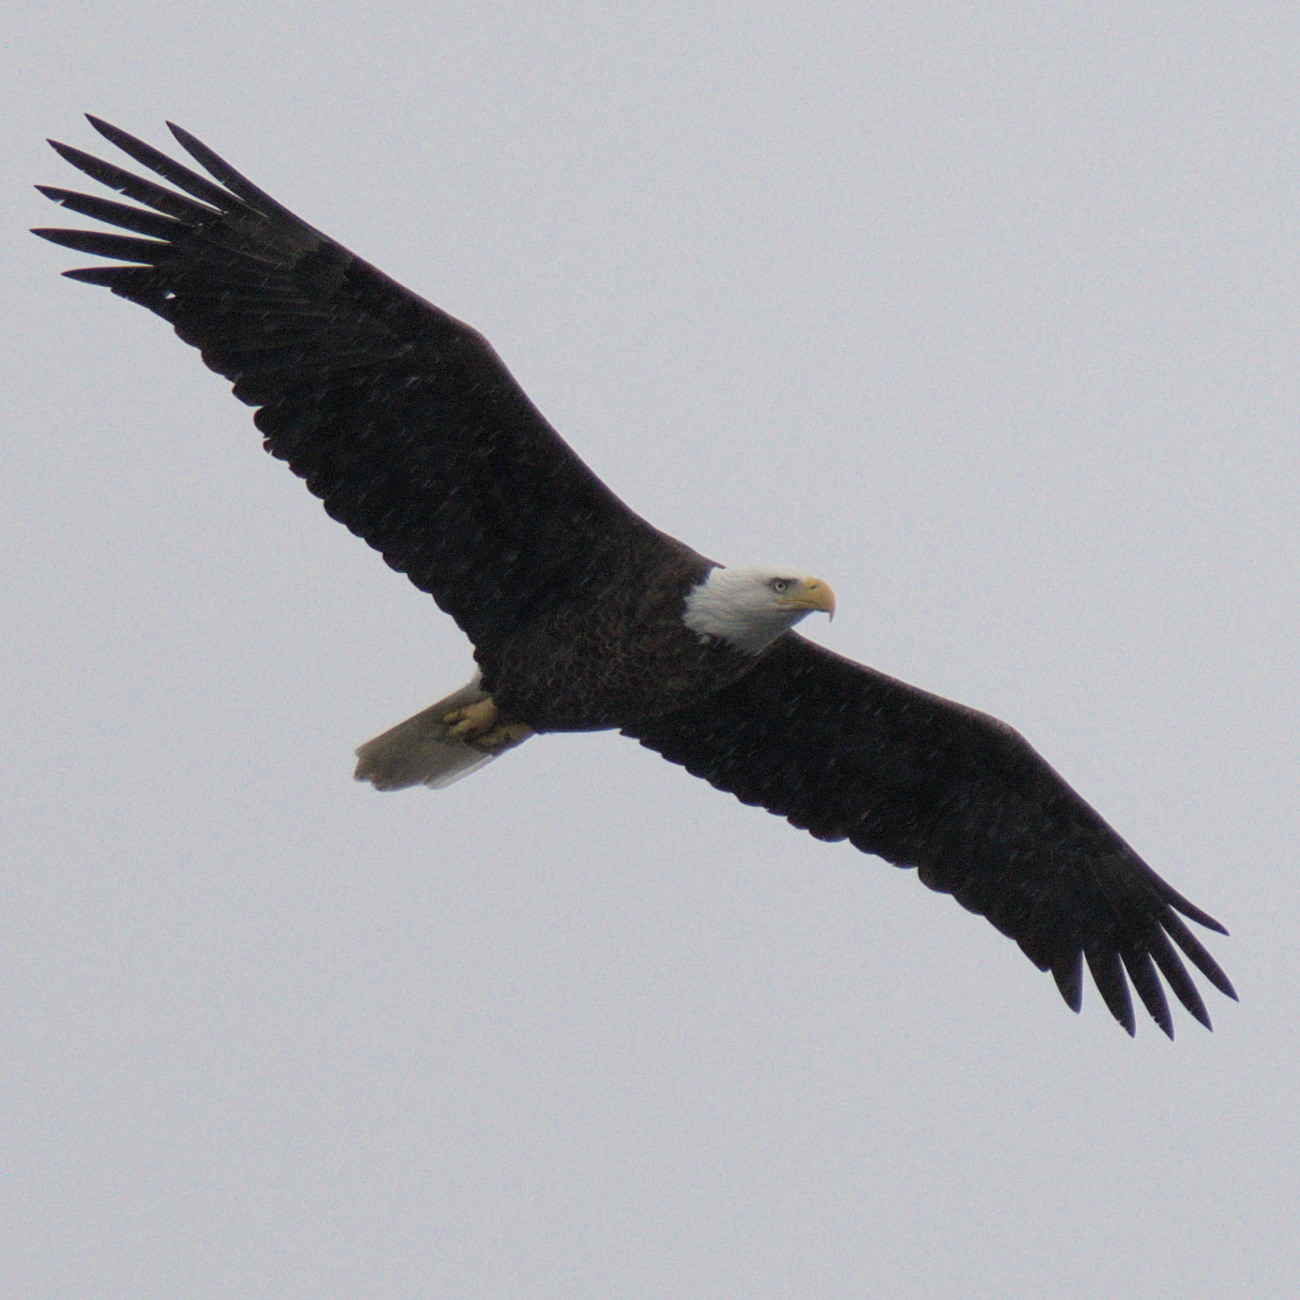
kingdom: Animalia
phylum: Chordata
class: Aves
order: Accipitriformes
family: Accipitridae
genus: Haliaeetus
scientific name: Haliaeetus leucocephalus
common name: Bald eagle
